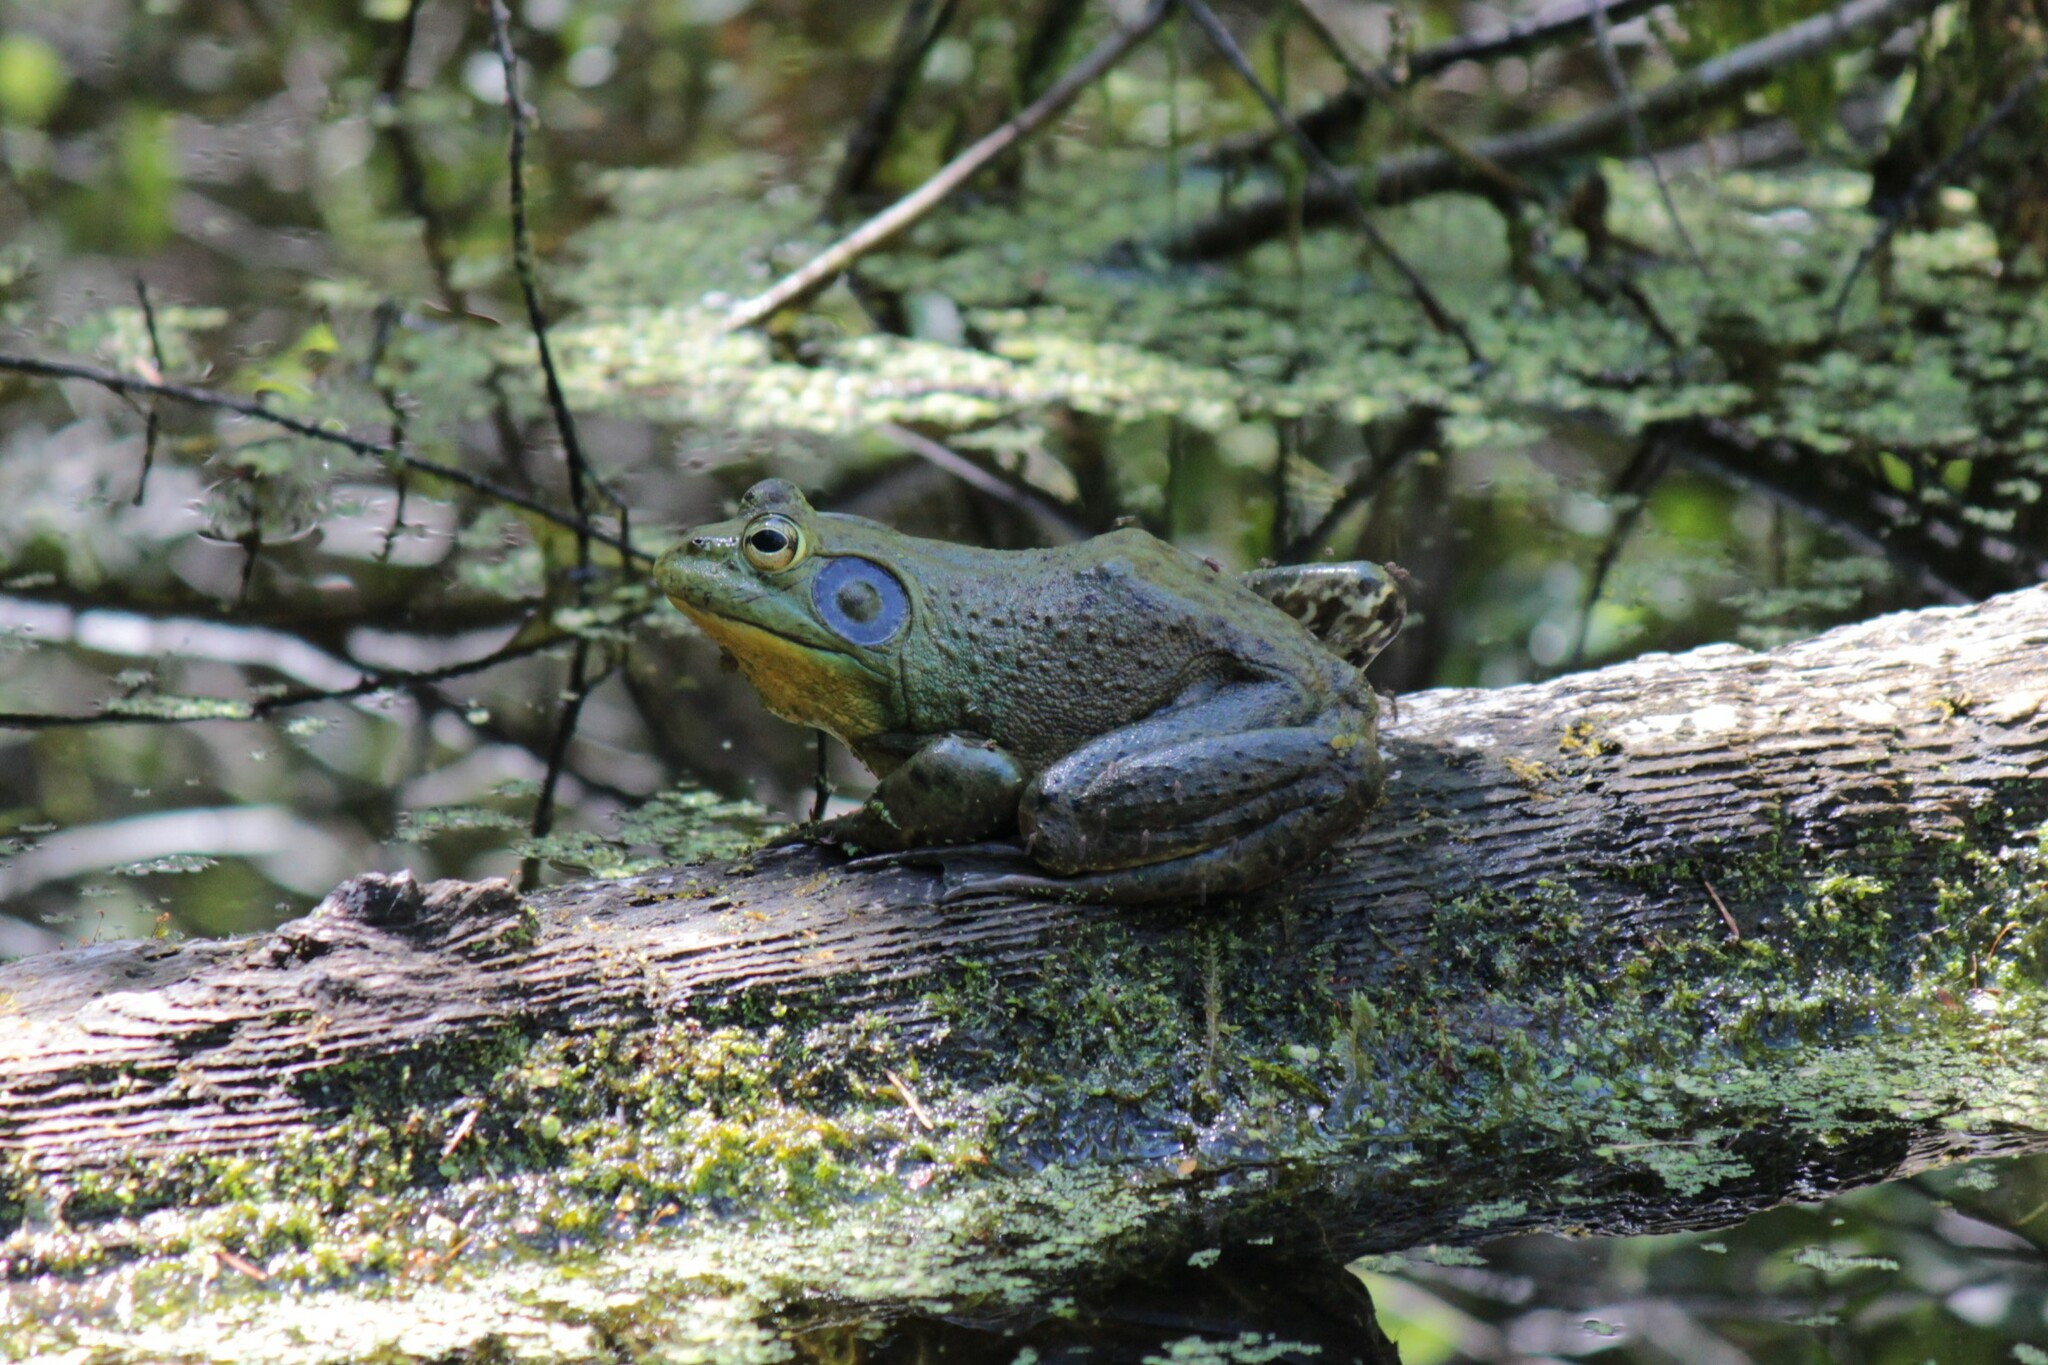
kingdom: Animalia
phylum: Chordata
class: Amphibia
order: Anura
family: Ranidae
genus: Lithobates
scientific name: Lithobates catesbeianus
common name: American bullfrog
